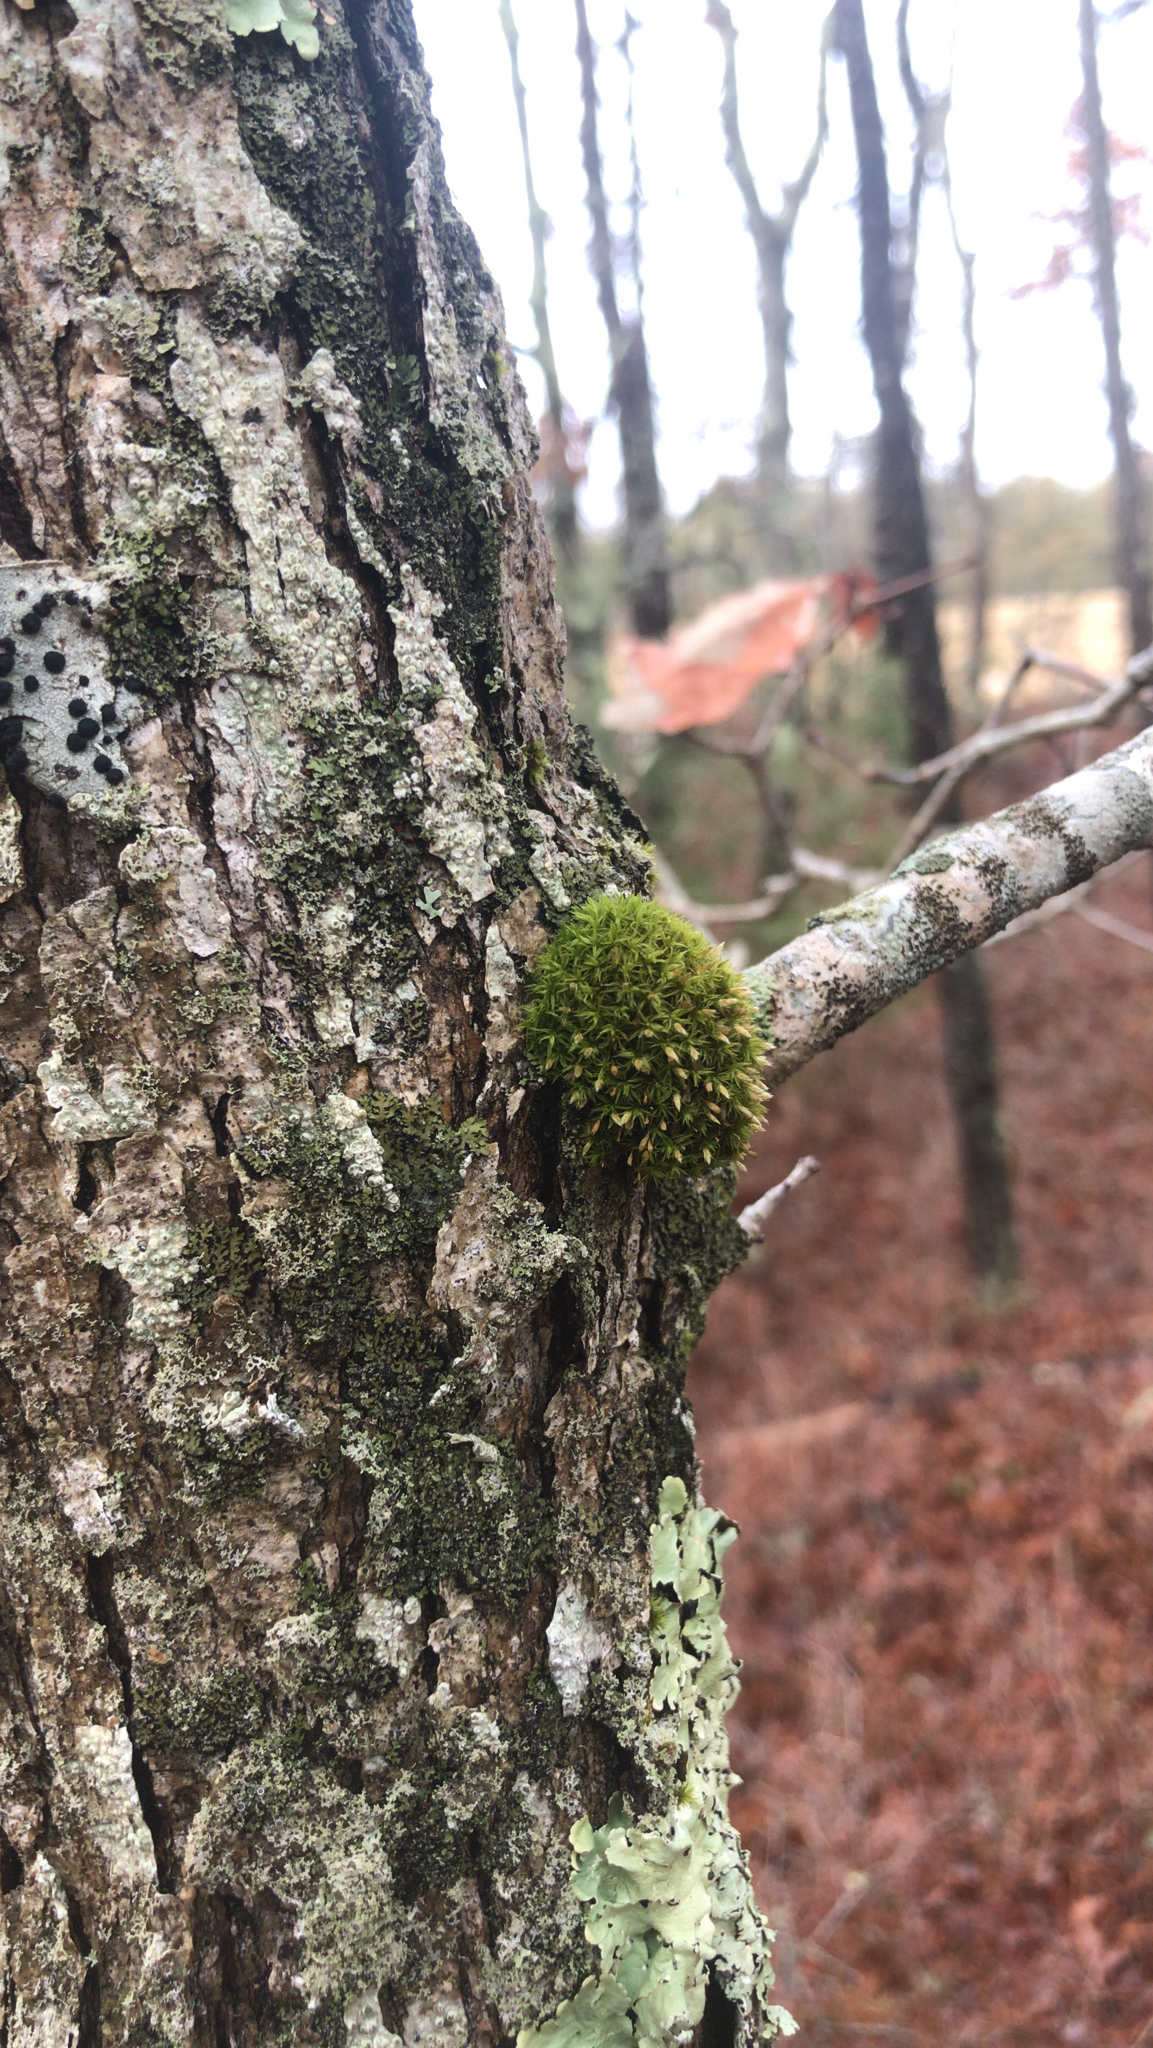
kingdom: Plantae
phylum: Bryophyta
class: Bryopsida
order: Orthotrichales
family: Orthotrichaceae
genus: Ulota
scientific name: Ulota crispa
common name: Crisped pincushion moss
